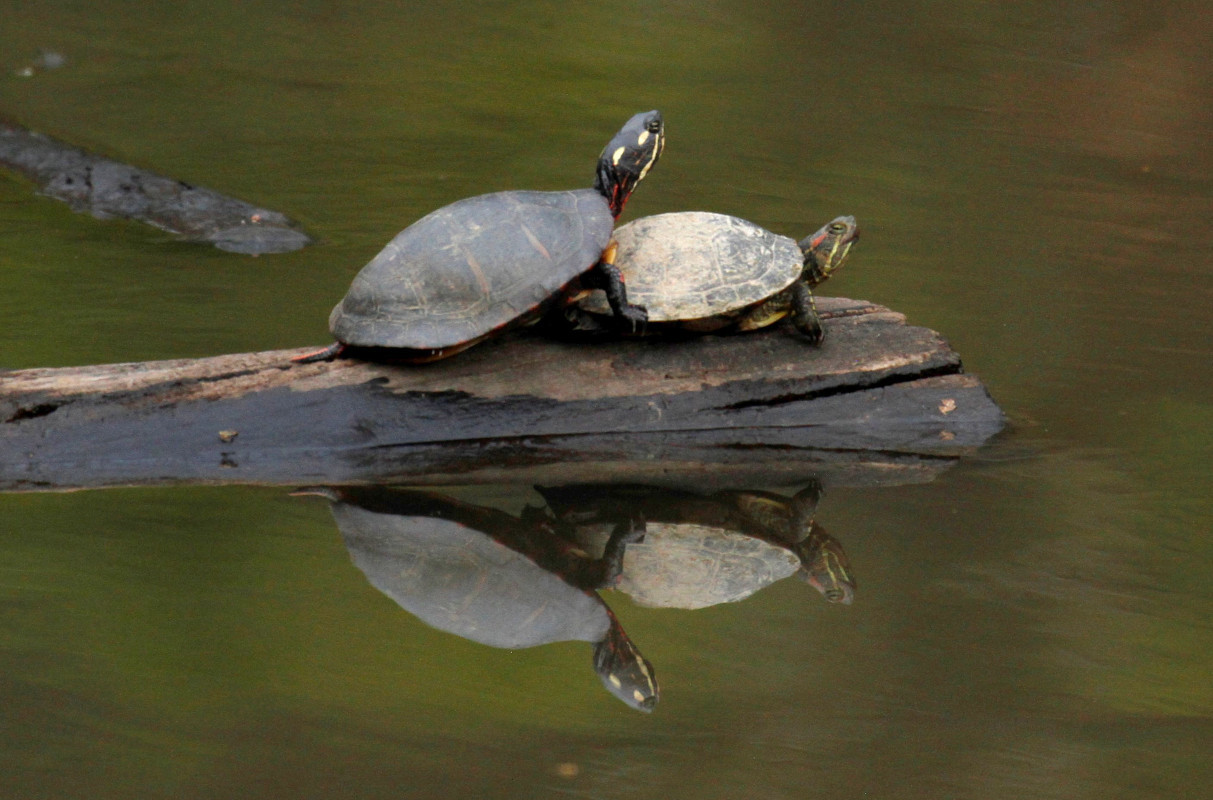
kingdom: Animalia
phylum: Chordata
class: Testudines
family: Emydidae
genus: Chrysemys
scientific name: Chrysemys picta
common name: Painted turtle
